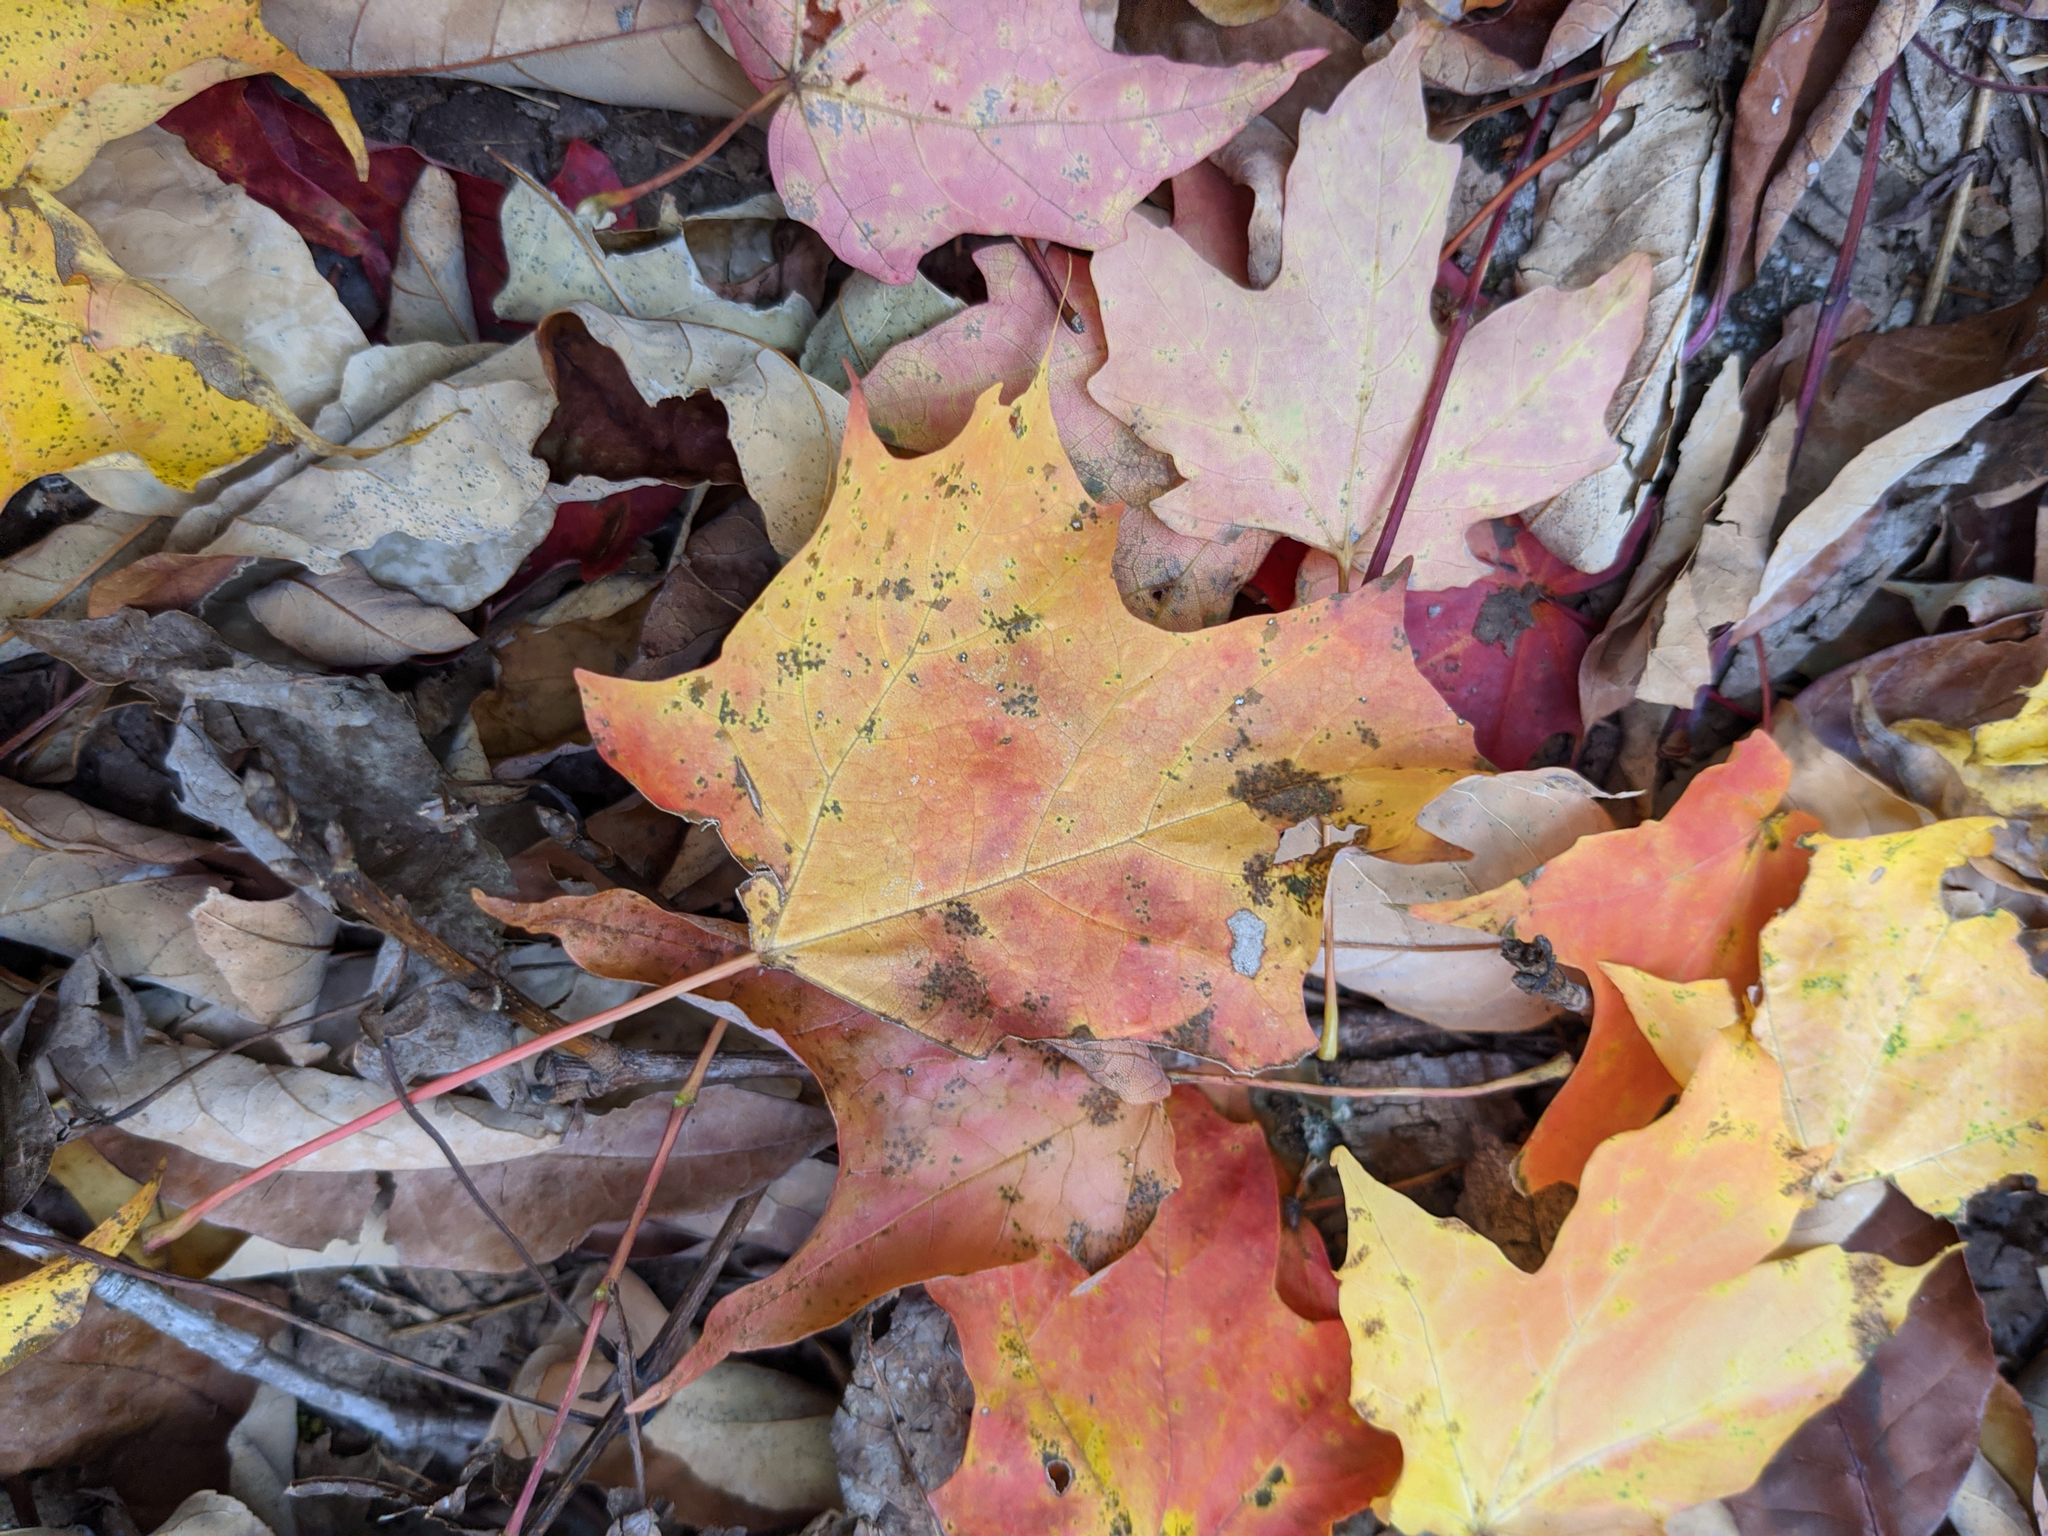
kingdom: Plantae
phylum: Tracheophyta
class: Magnoliopsida
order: Sapindales
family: Sapindaceae
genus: Acer
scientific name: Acer saccharum
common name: Sugar maple
